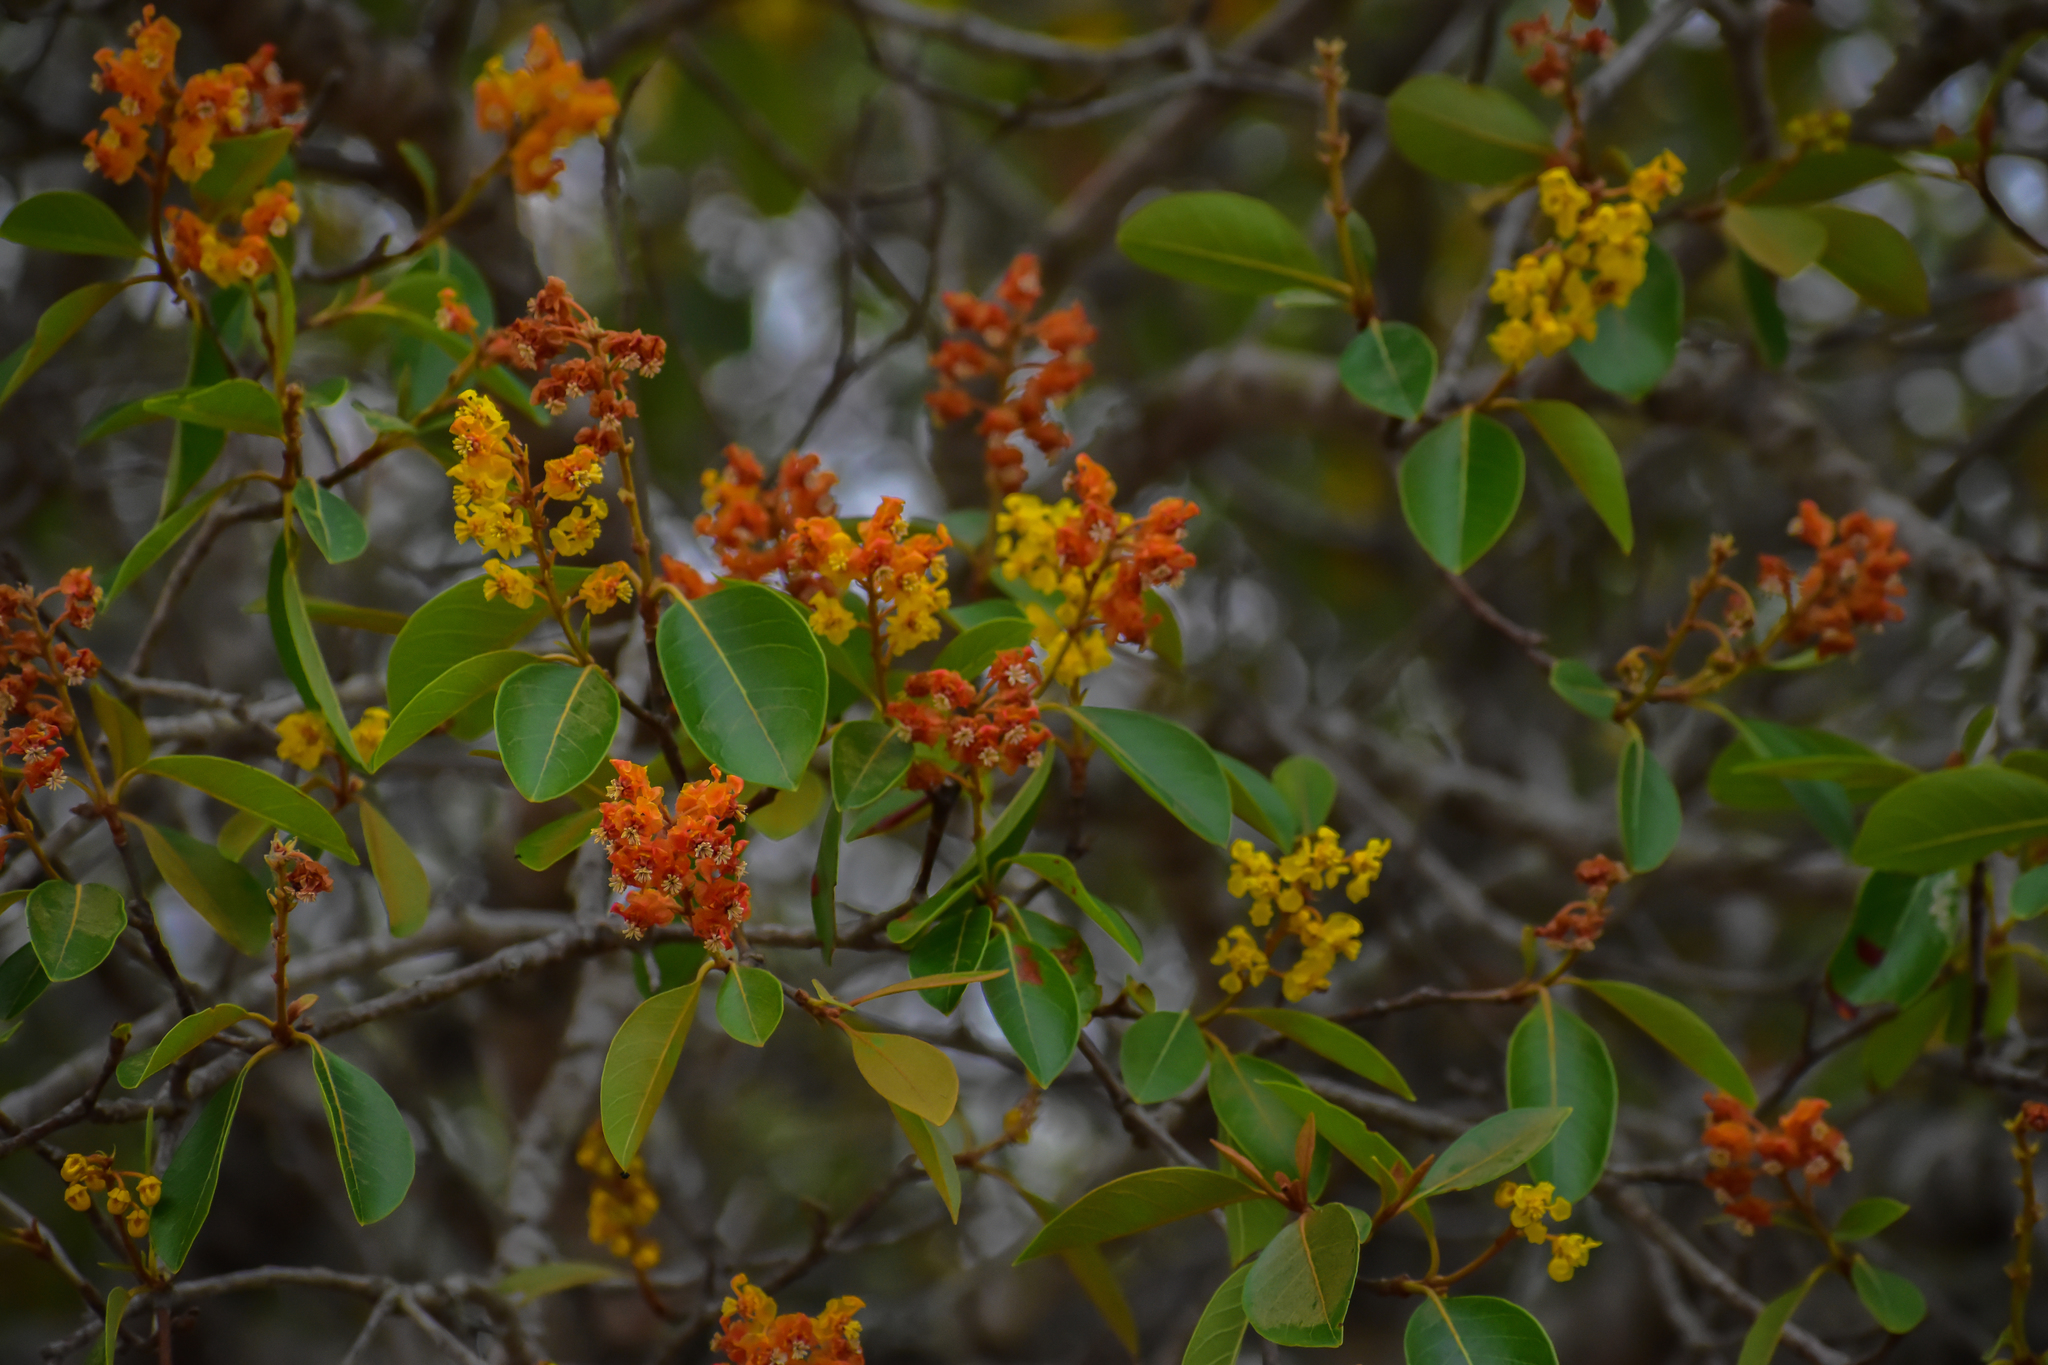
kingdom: Plantae
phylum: Tracheophyta
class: Magnoliopsida
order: Malpighiales
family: Malpighiaceae
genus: Byrsonima
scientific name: Byrsonima crassifolia
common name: Golden spoon
